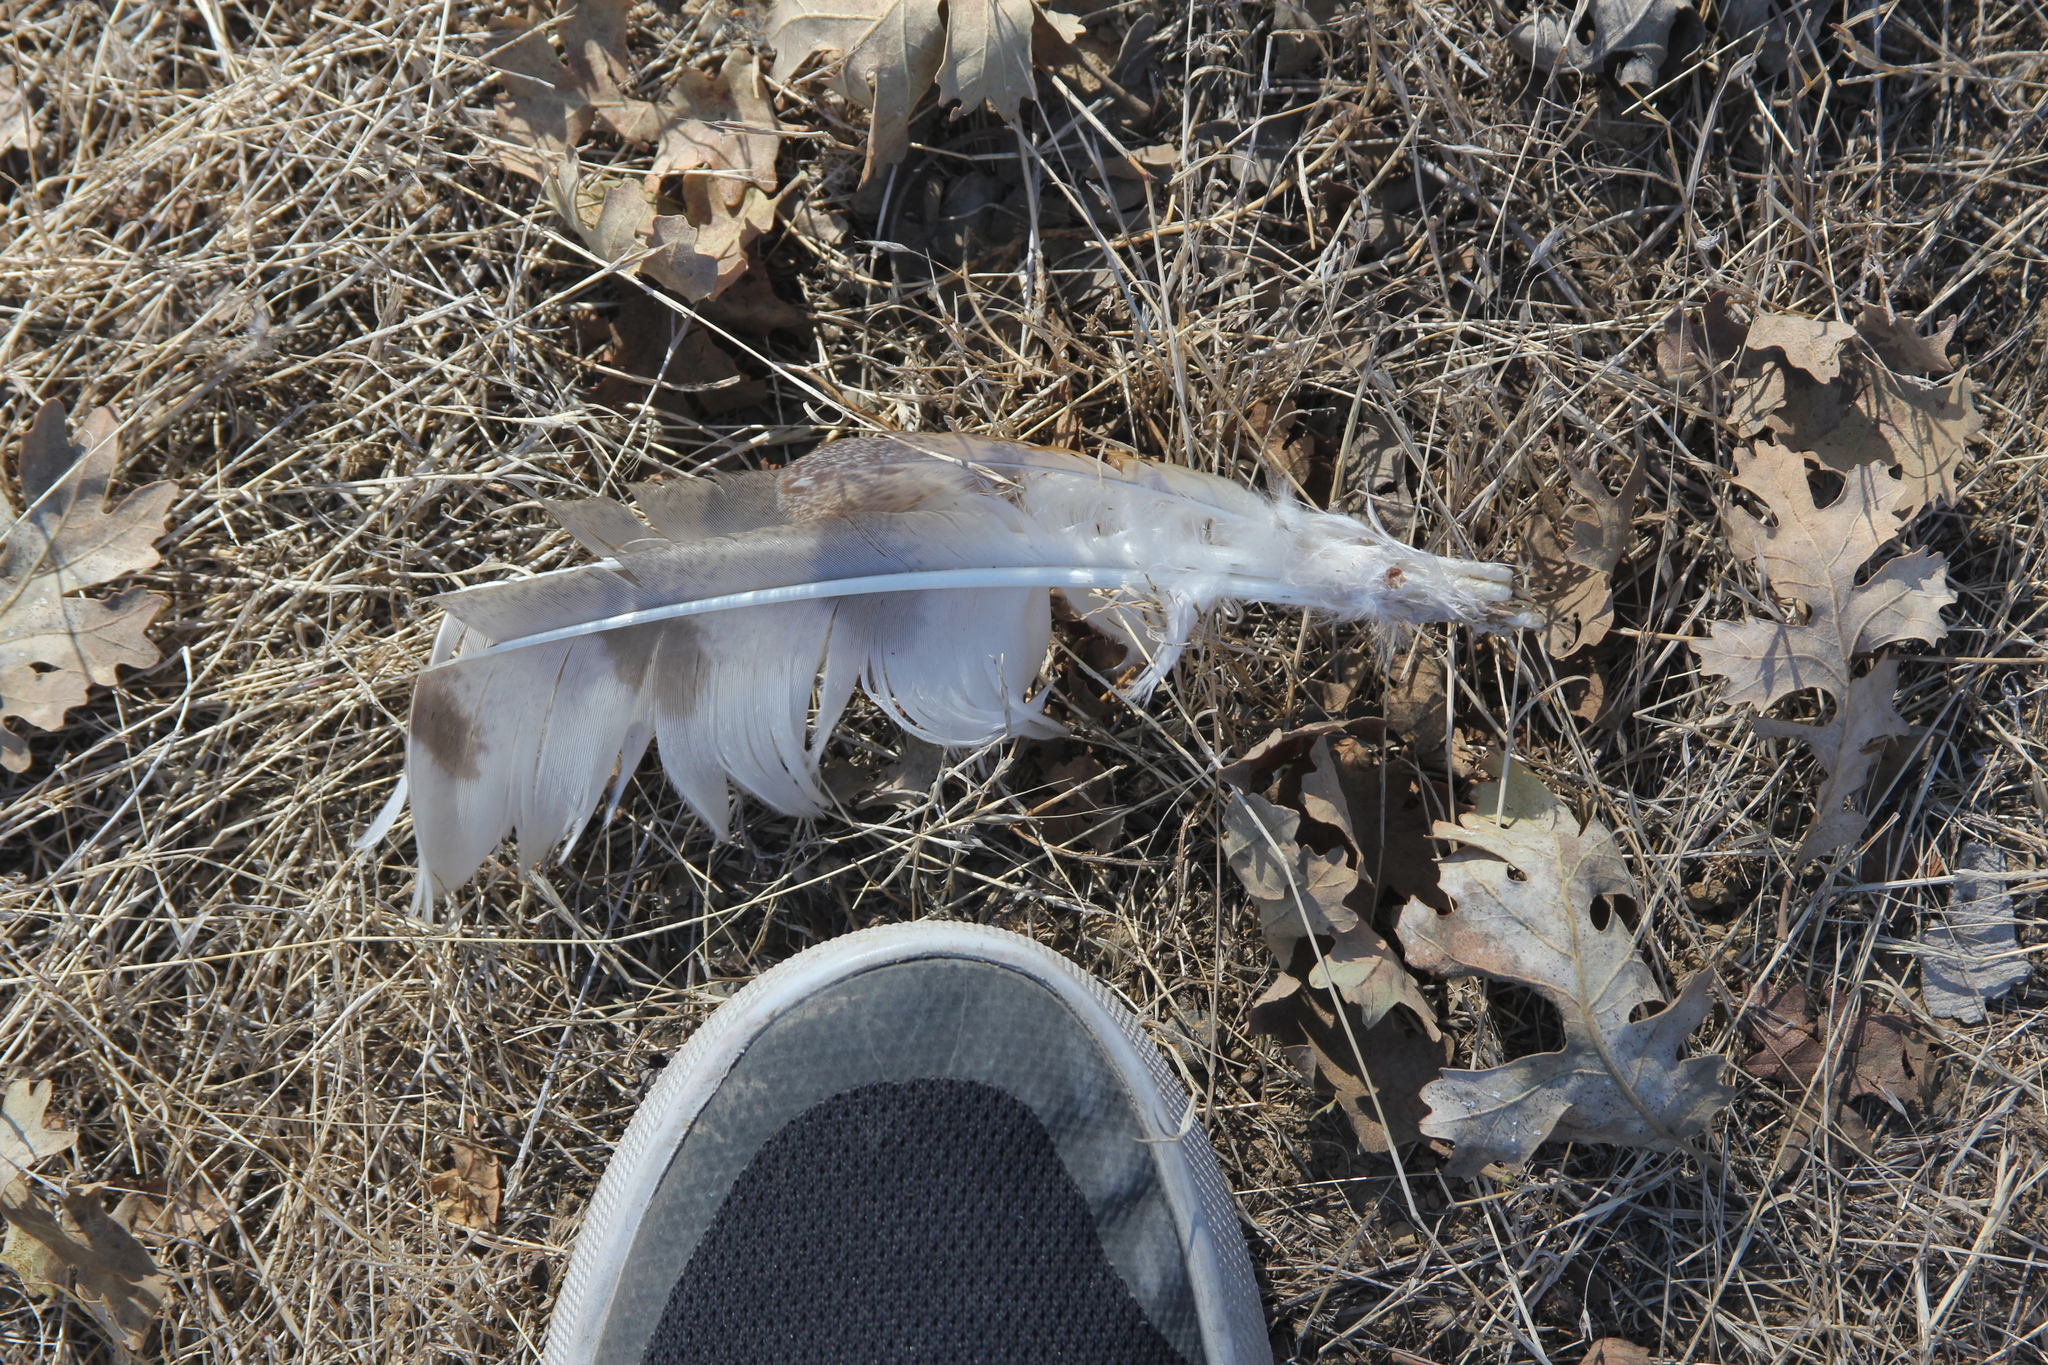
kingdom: Animalia
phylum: Chordata
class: Aves
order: Strigiformes
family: Tytonidae
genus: Tyto
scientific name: Tyto alba
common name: Barn owl
